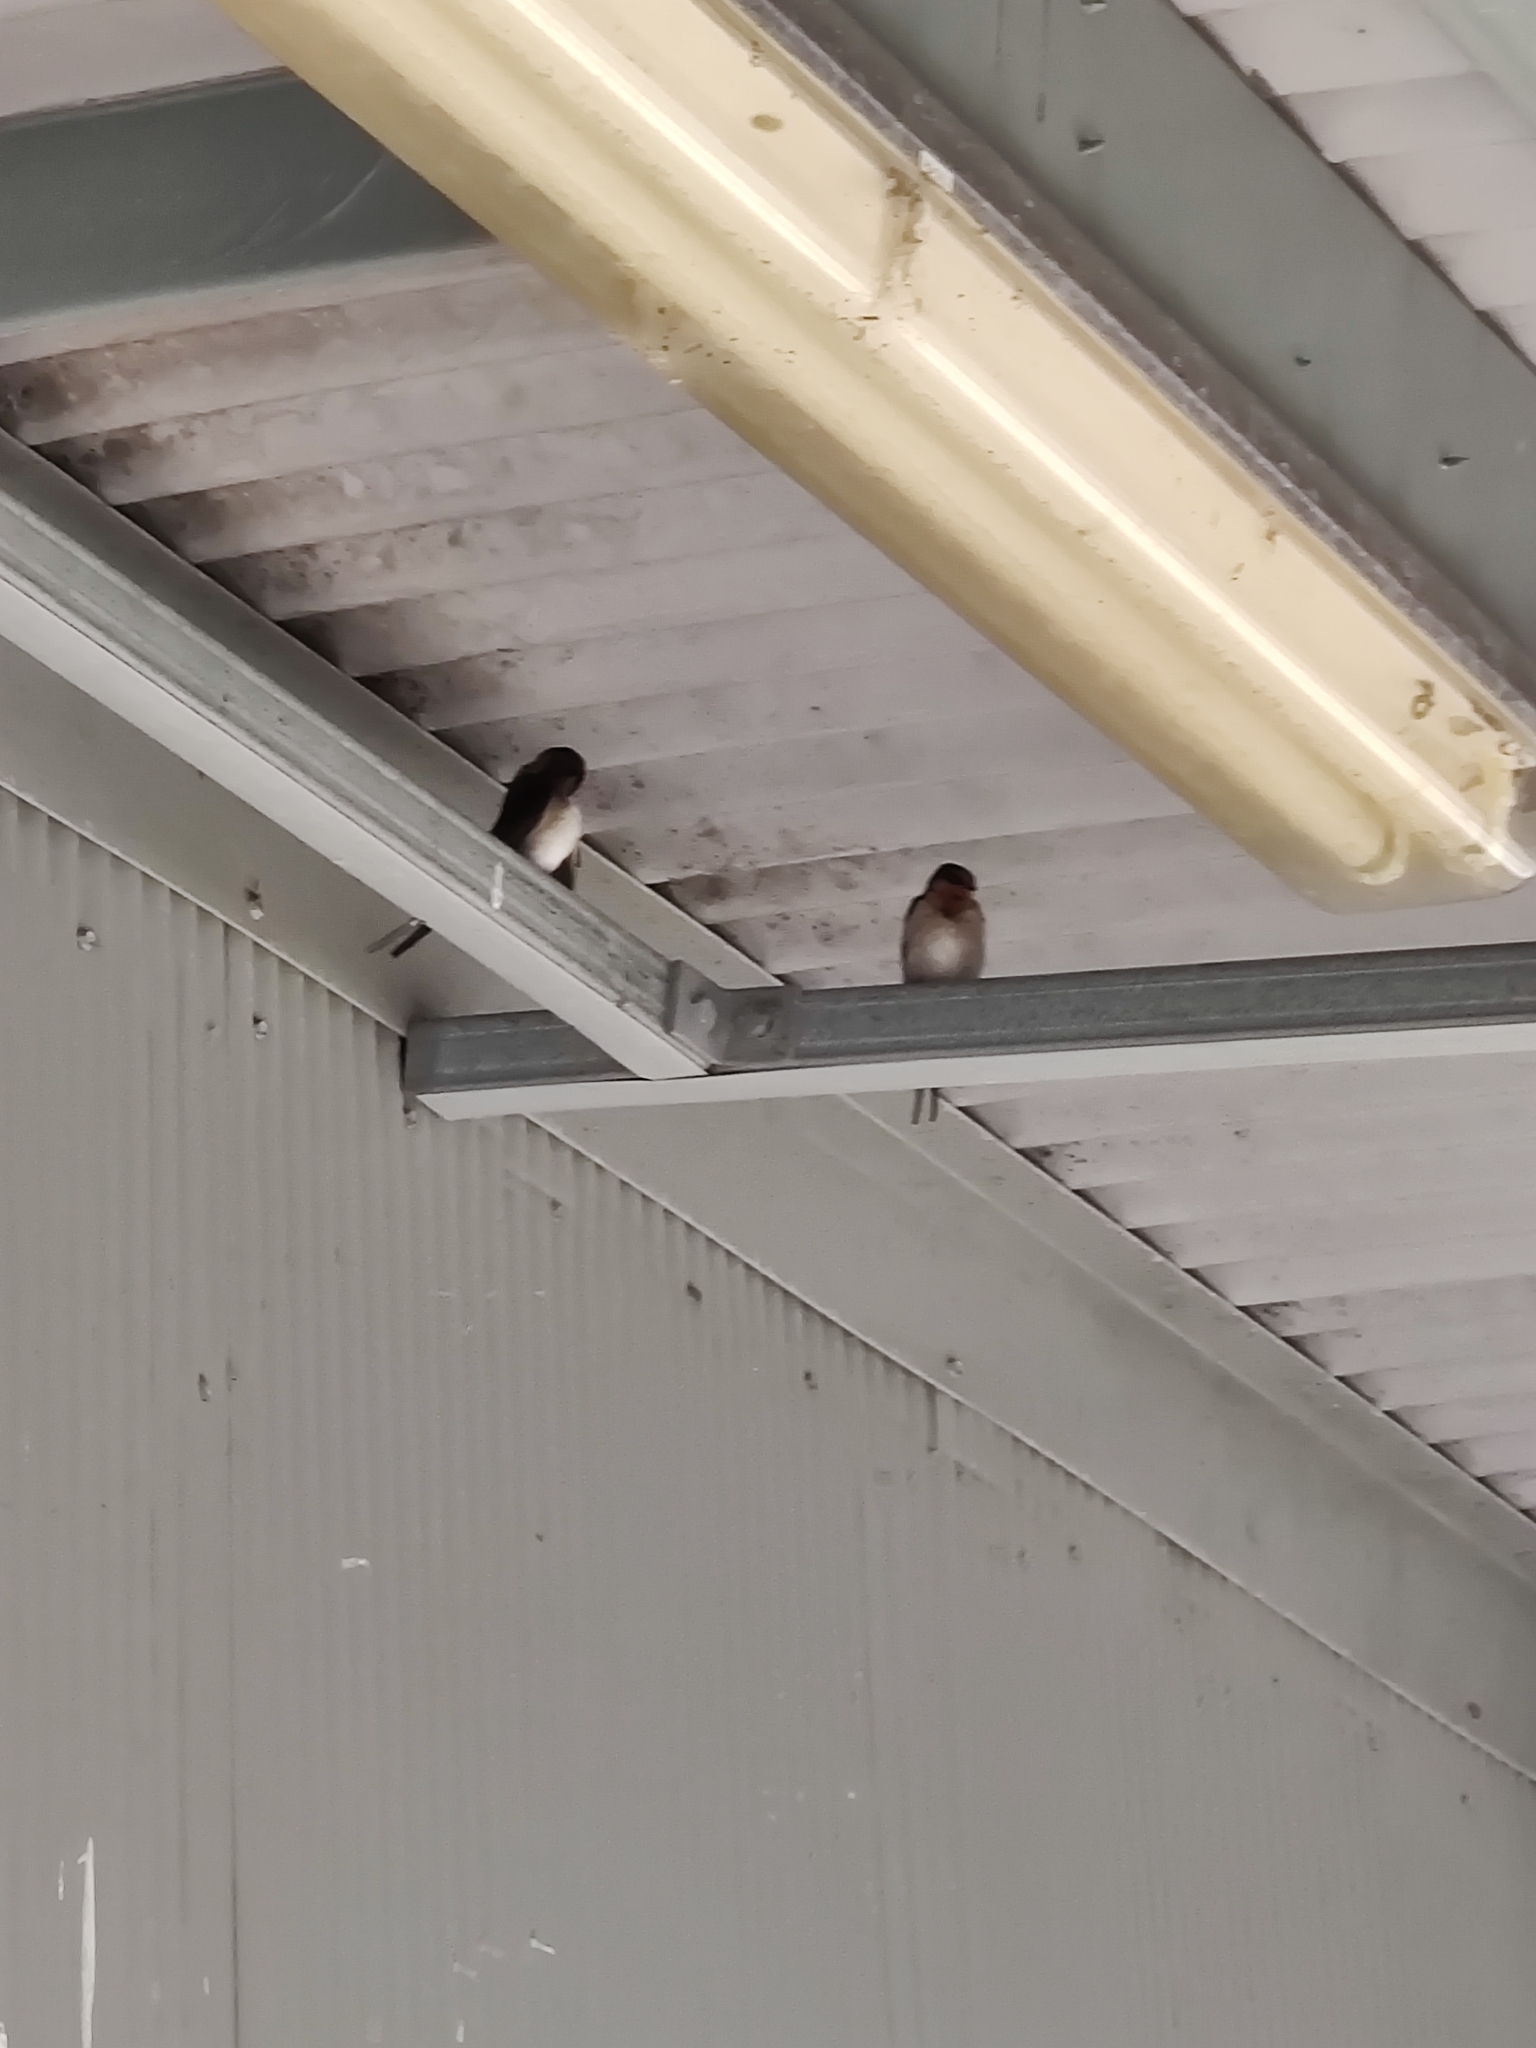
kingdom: Animalia
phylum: Chordata
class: Aves
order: Passeriformes
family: Hirundinidae
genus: Hirundo
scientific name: Hirundo neoxena
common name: Welcome swallow
